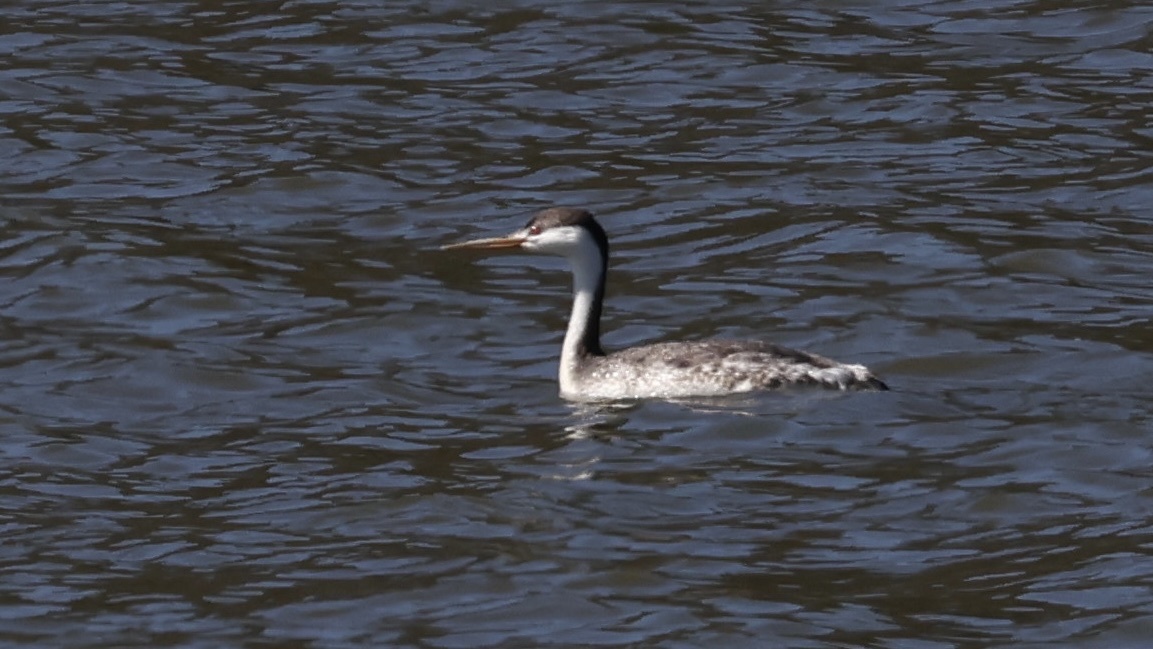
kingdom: Animalia
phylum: Chordata
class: Aves
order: Podicipediformes
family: Podicipedidae
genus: Aechmophorus
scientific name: Aechmophorus clarkii
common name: Clark's grebe
